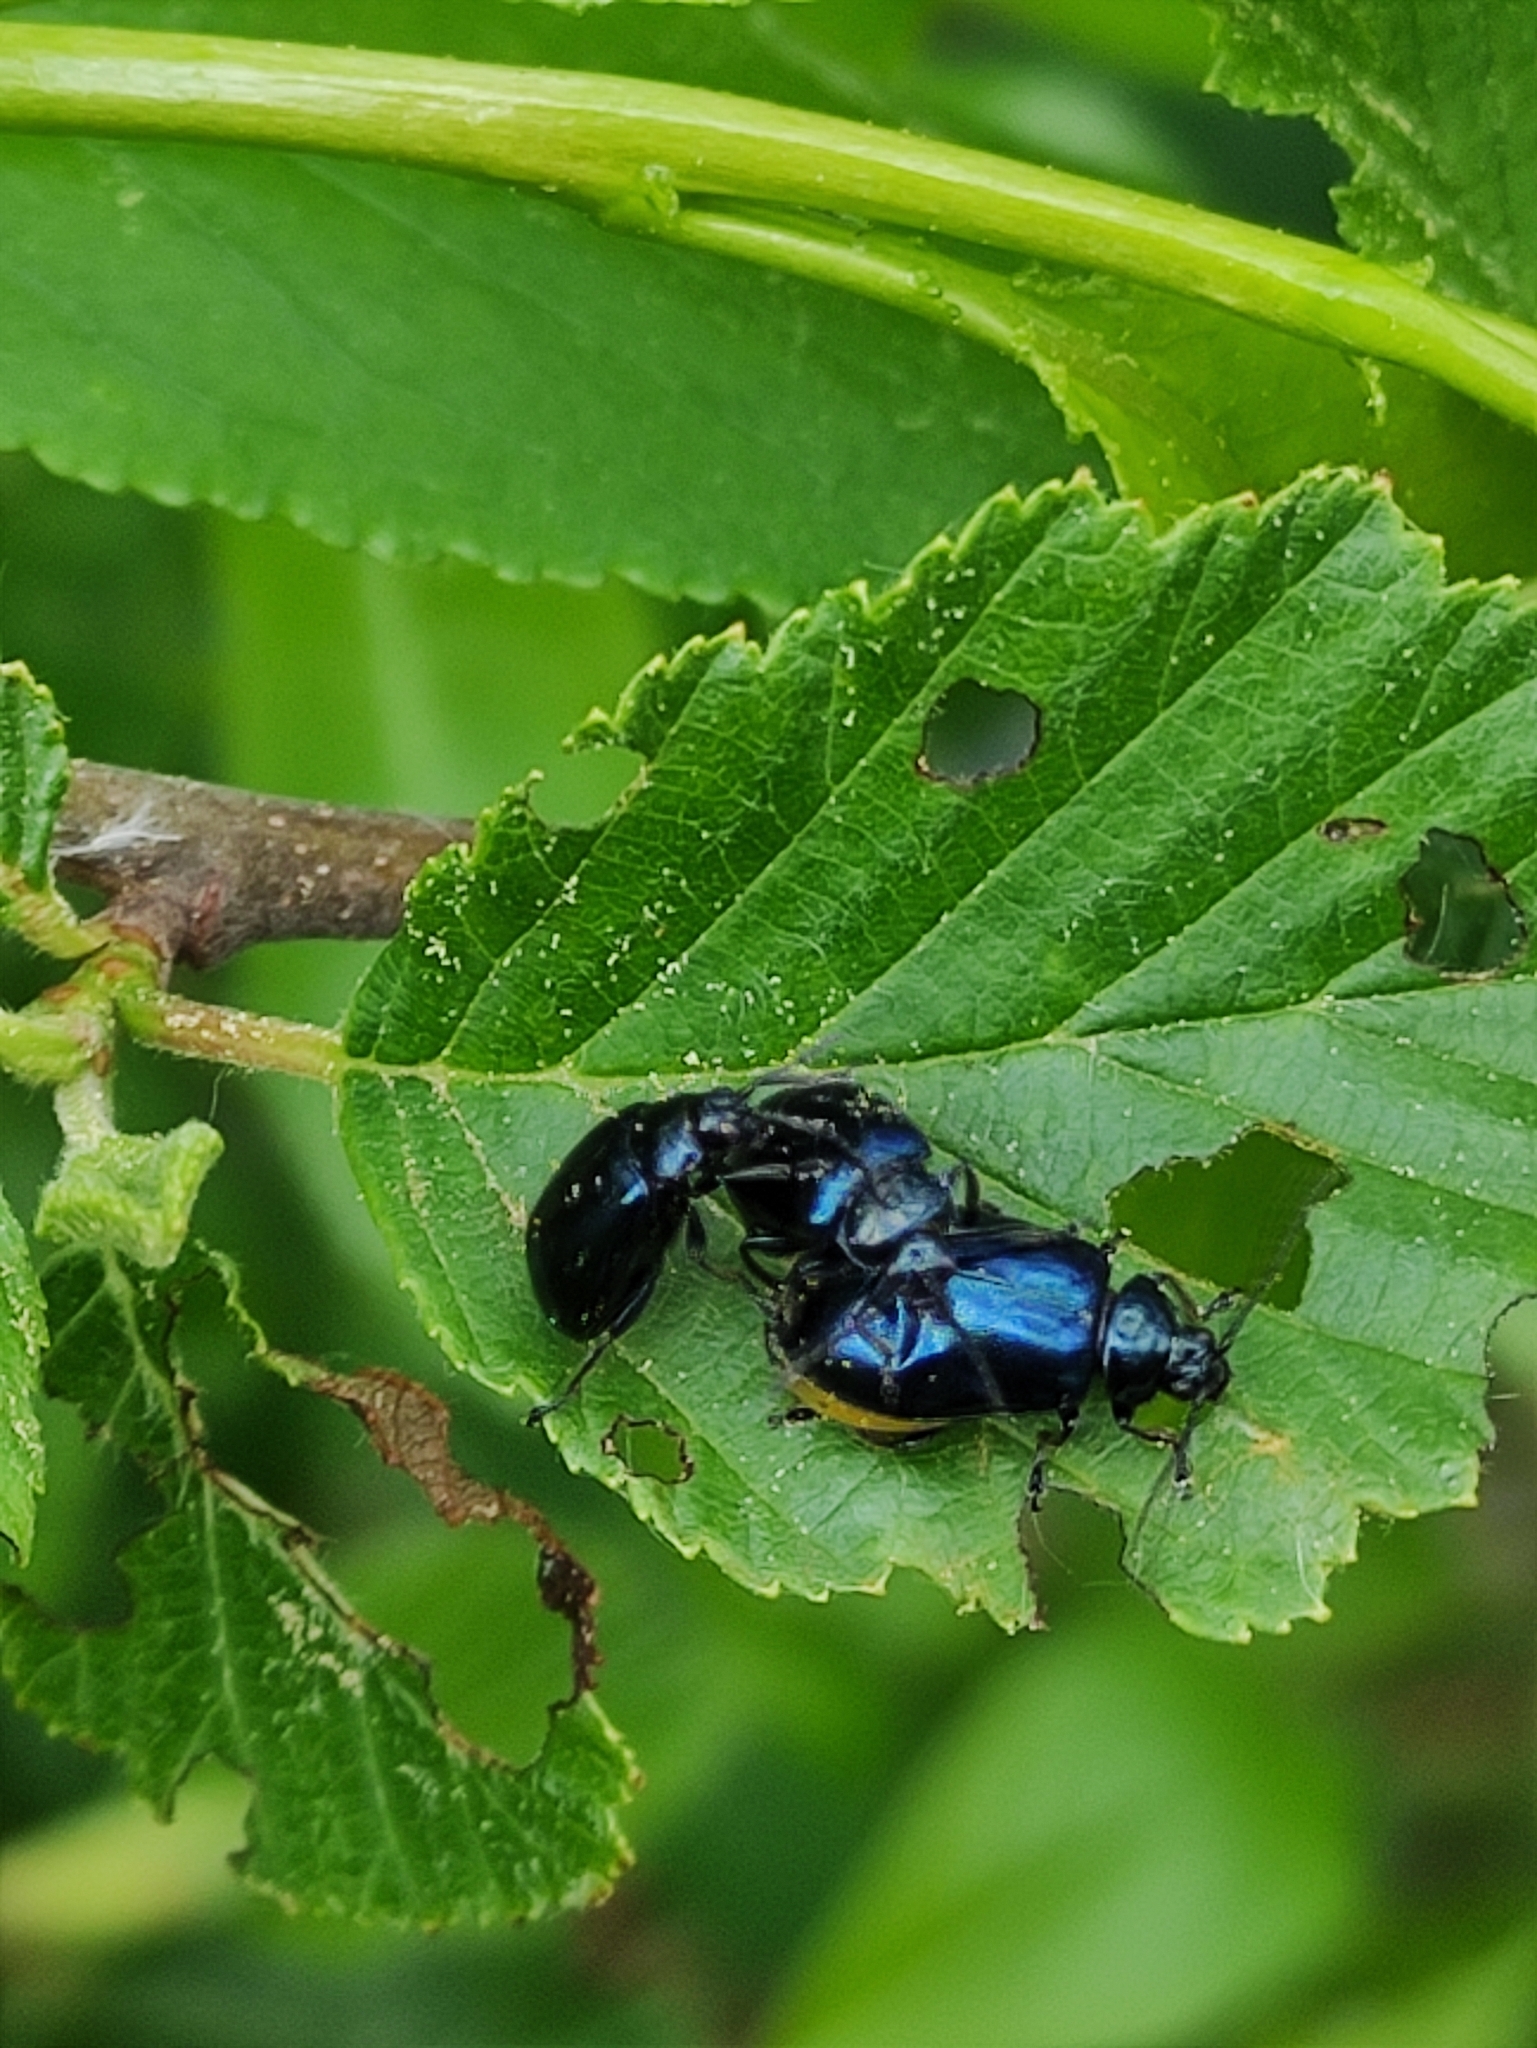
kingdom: Animalia
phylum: Arthropoda
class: Insecta
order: Coleoptera
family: Chrysomelidae
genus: Agelastica
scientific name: Agelastica alni
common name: Alder leaf beetle
